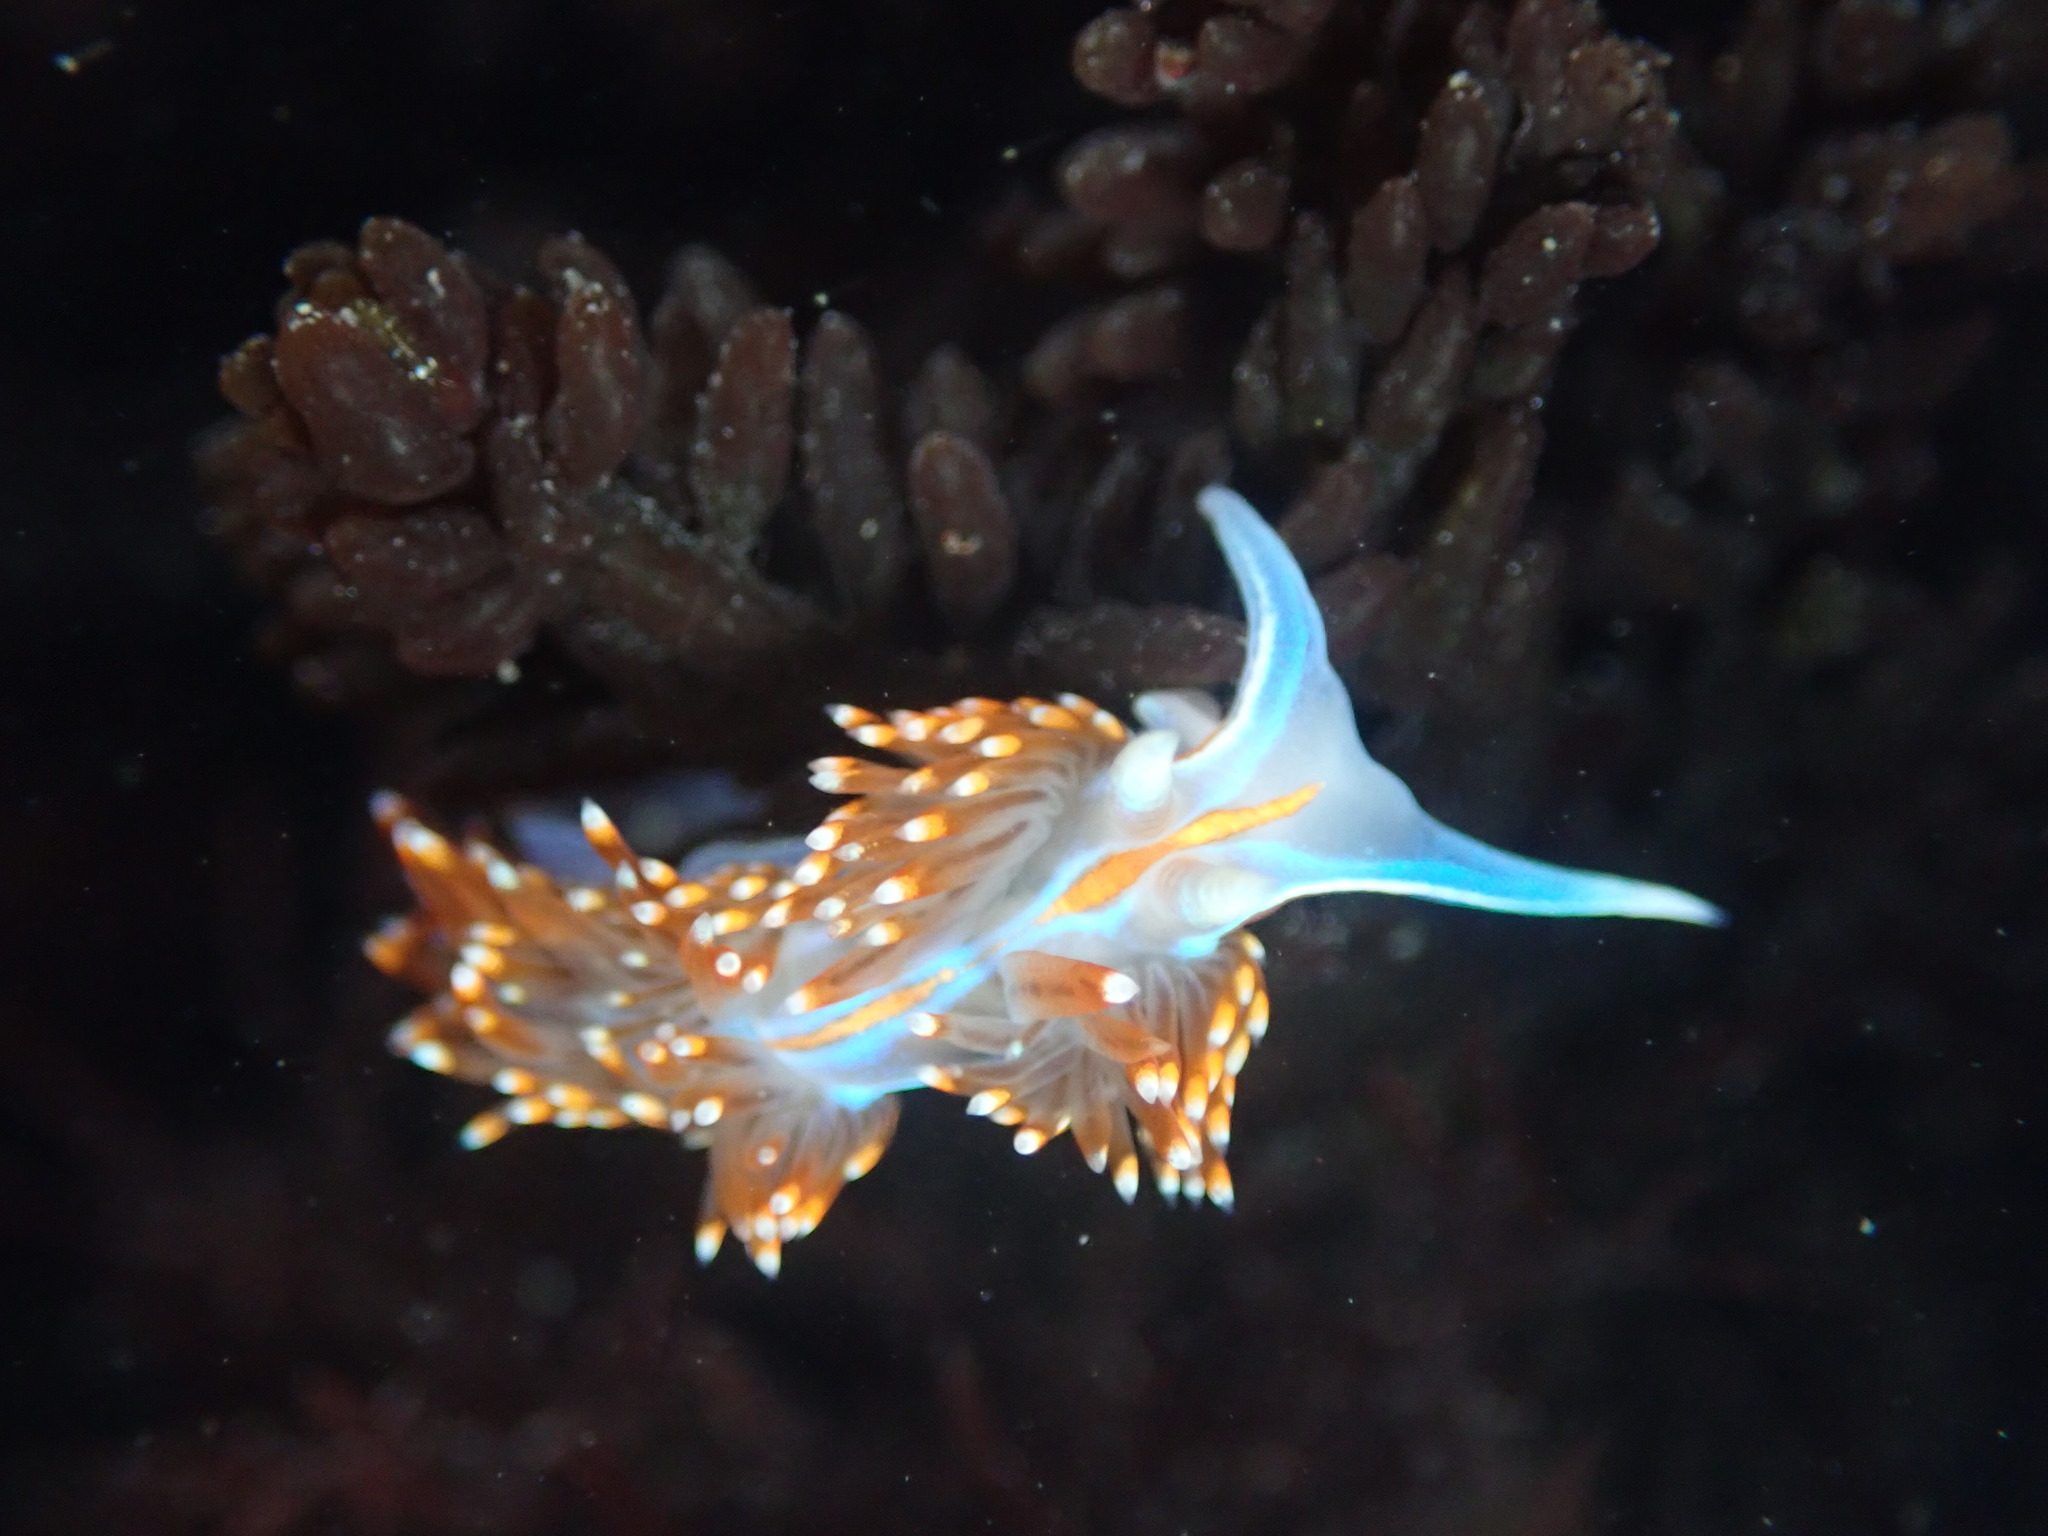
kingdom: Animalia
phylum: Mollusca
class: Gastropoda
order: Nudibranchia
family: Myrrhinidae
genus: Hermissenda
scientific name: Hermissenda opalescens
